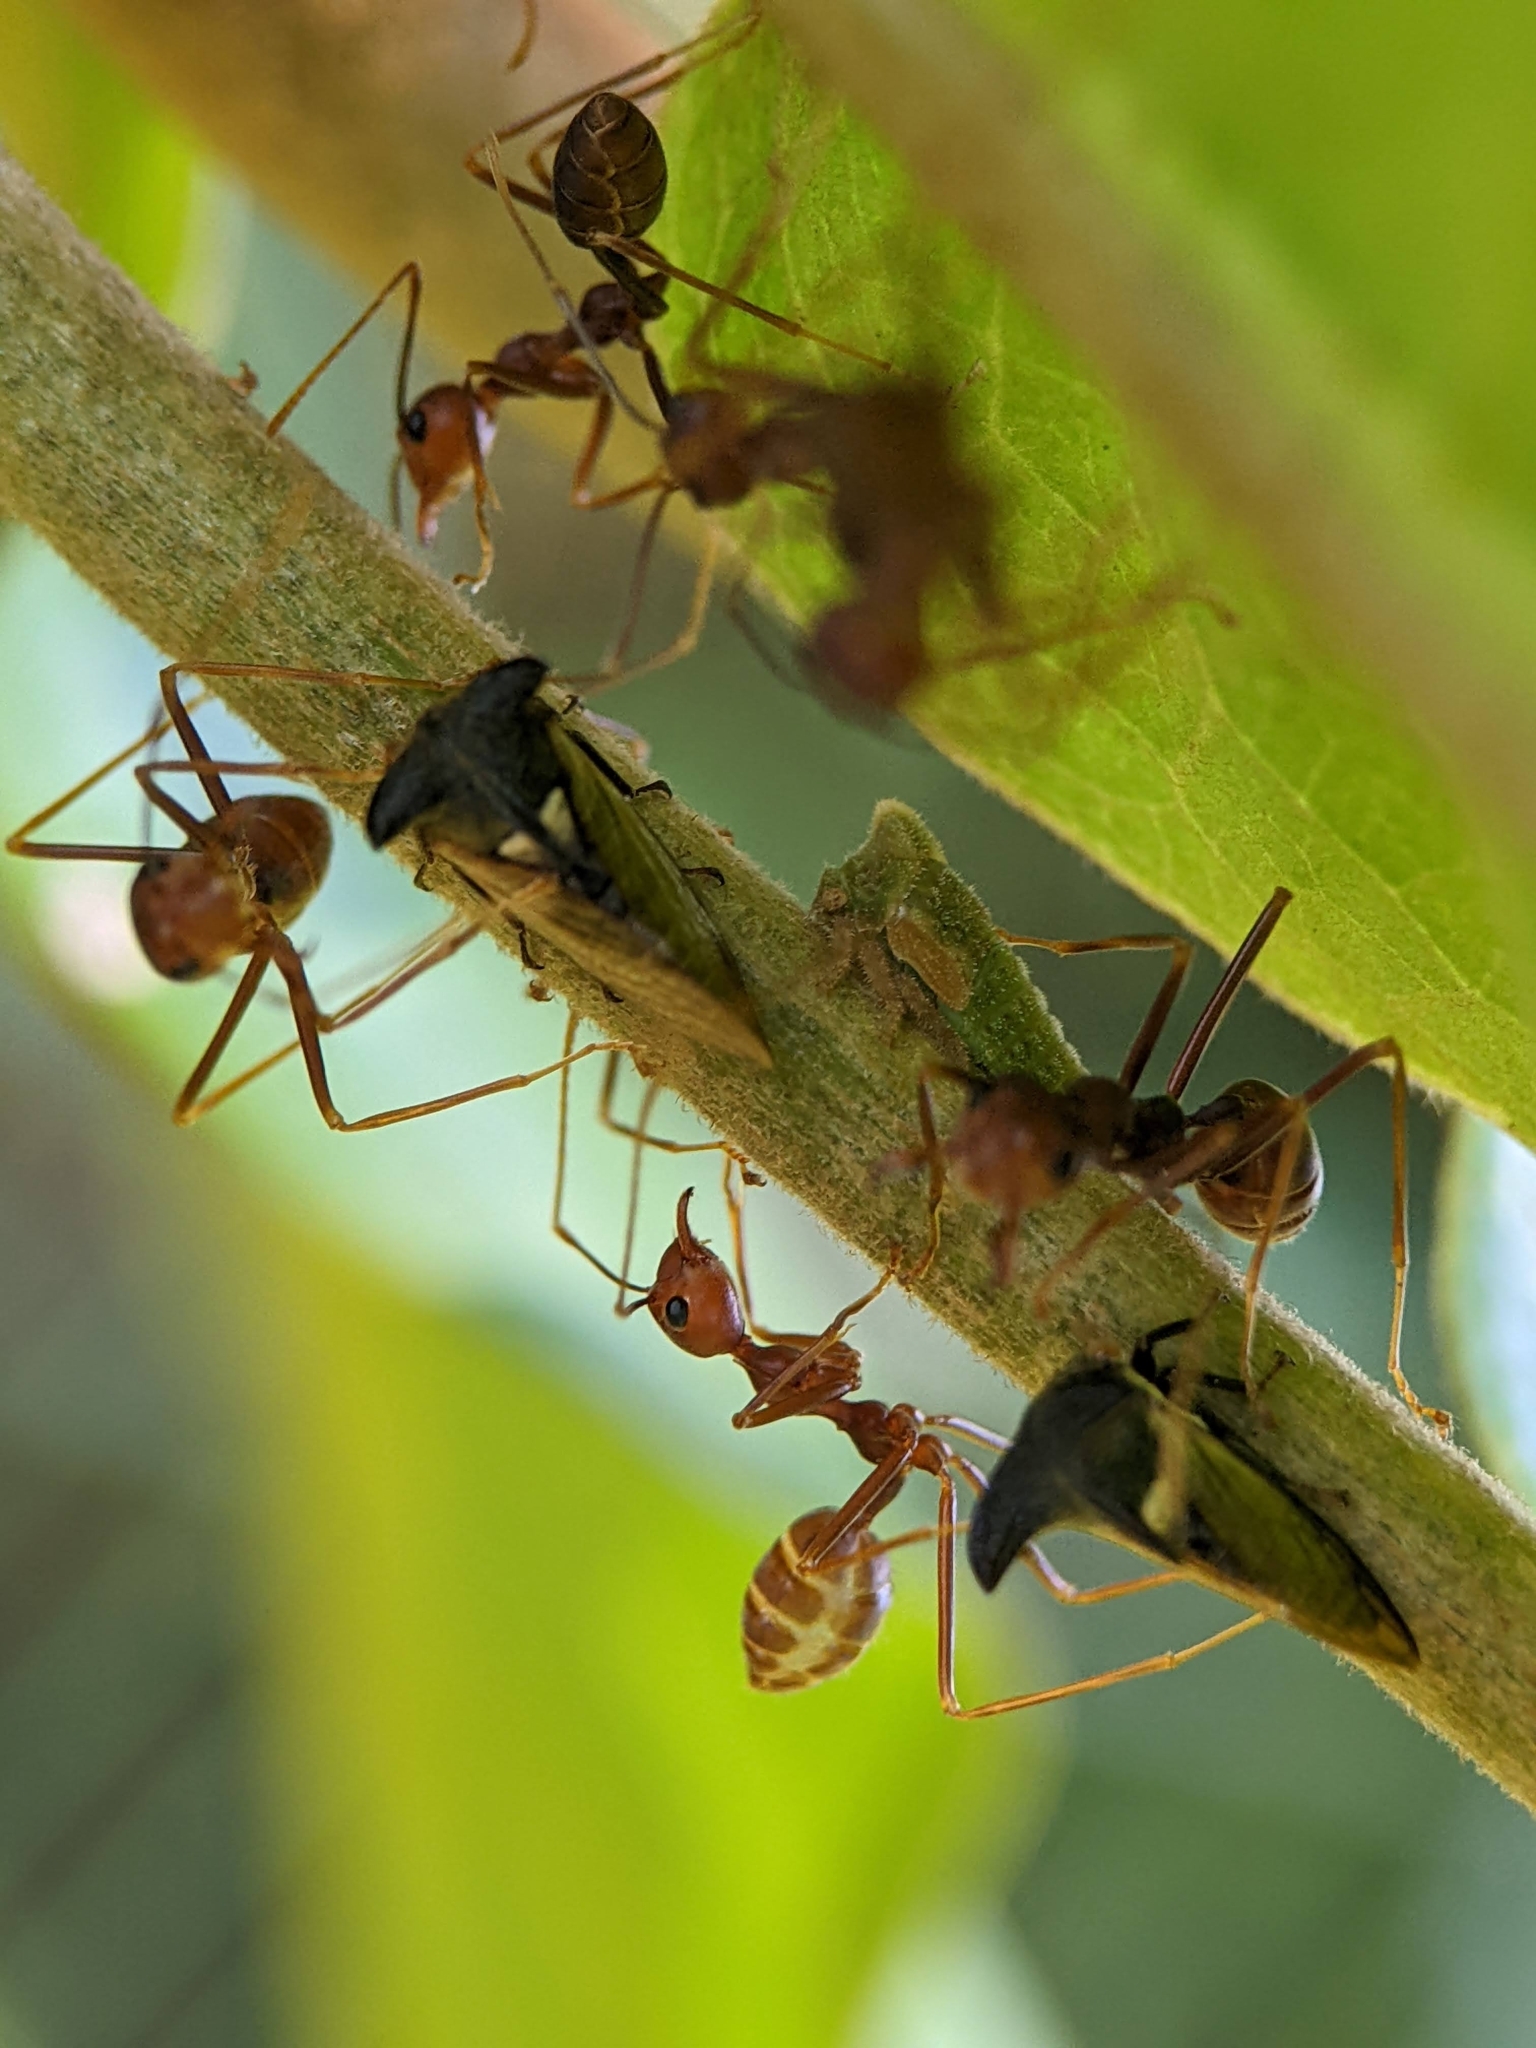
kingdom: Animalia
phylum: Arthropoda
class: Insecta
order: Hemiptera
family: Membracidae
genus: Nilautama
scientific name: Nilautama minutispina
